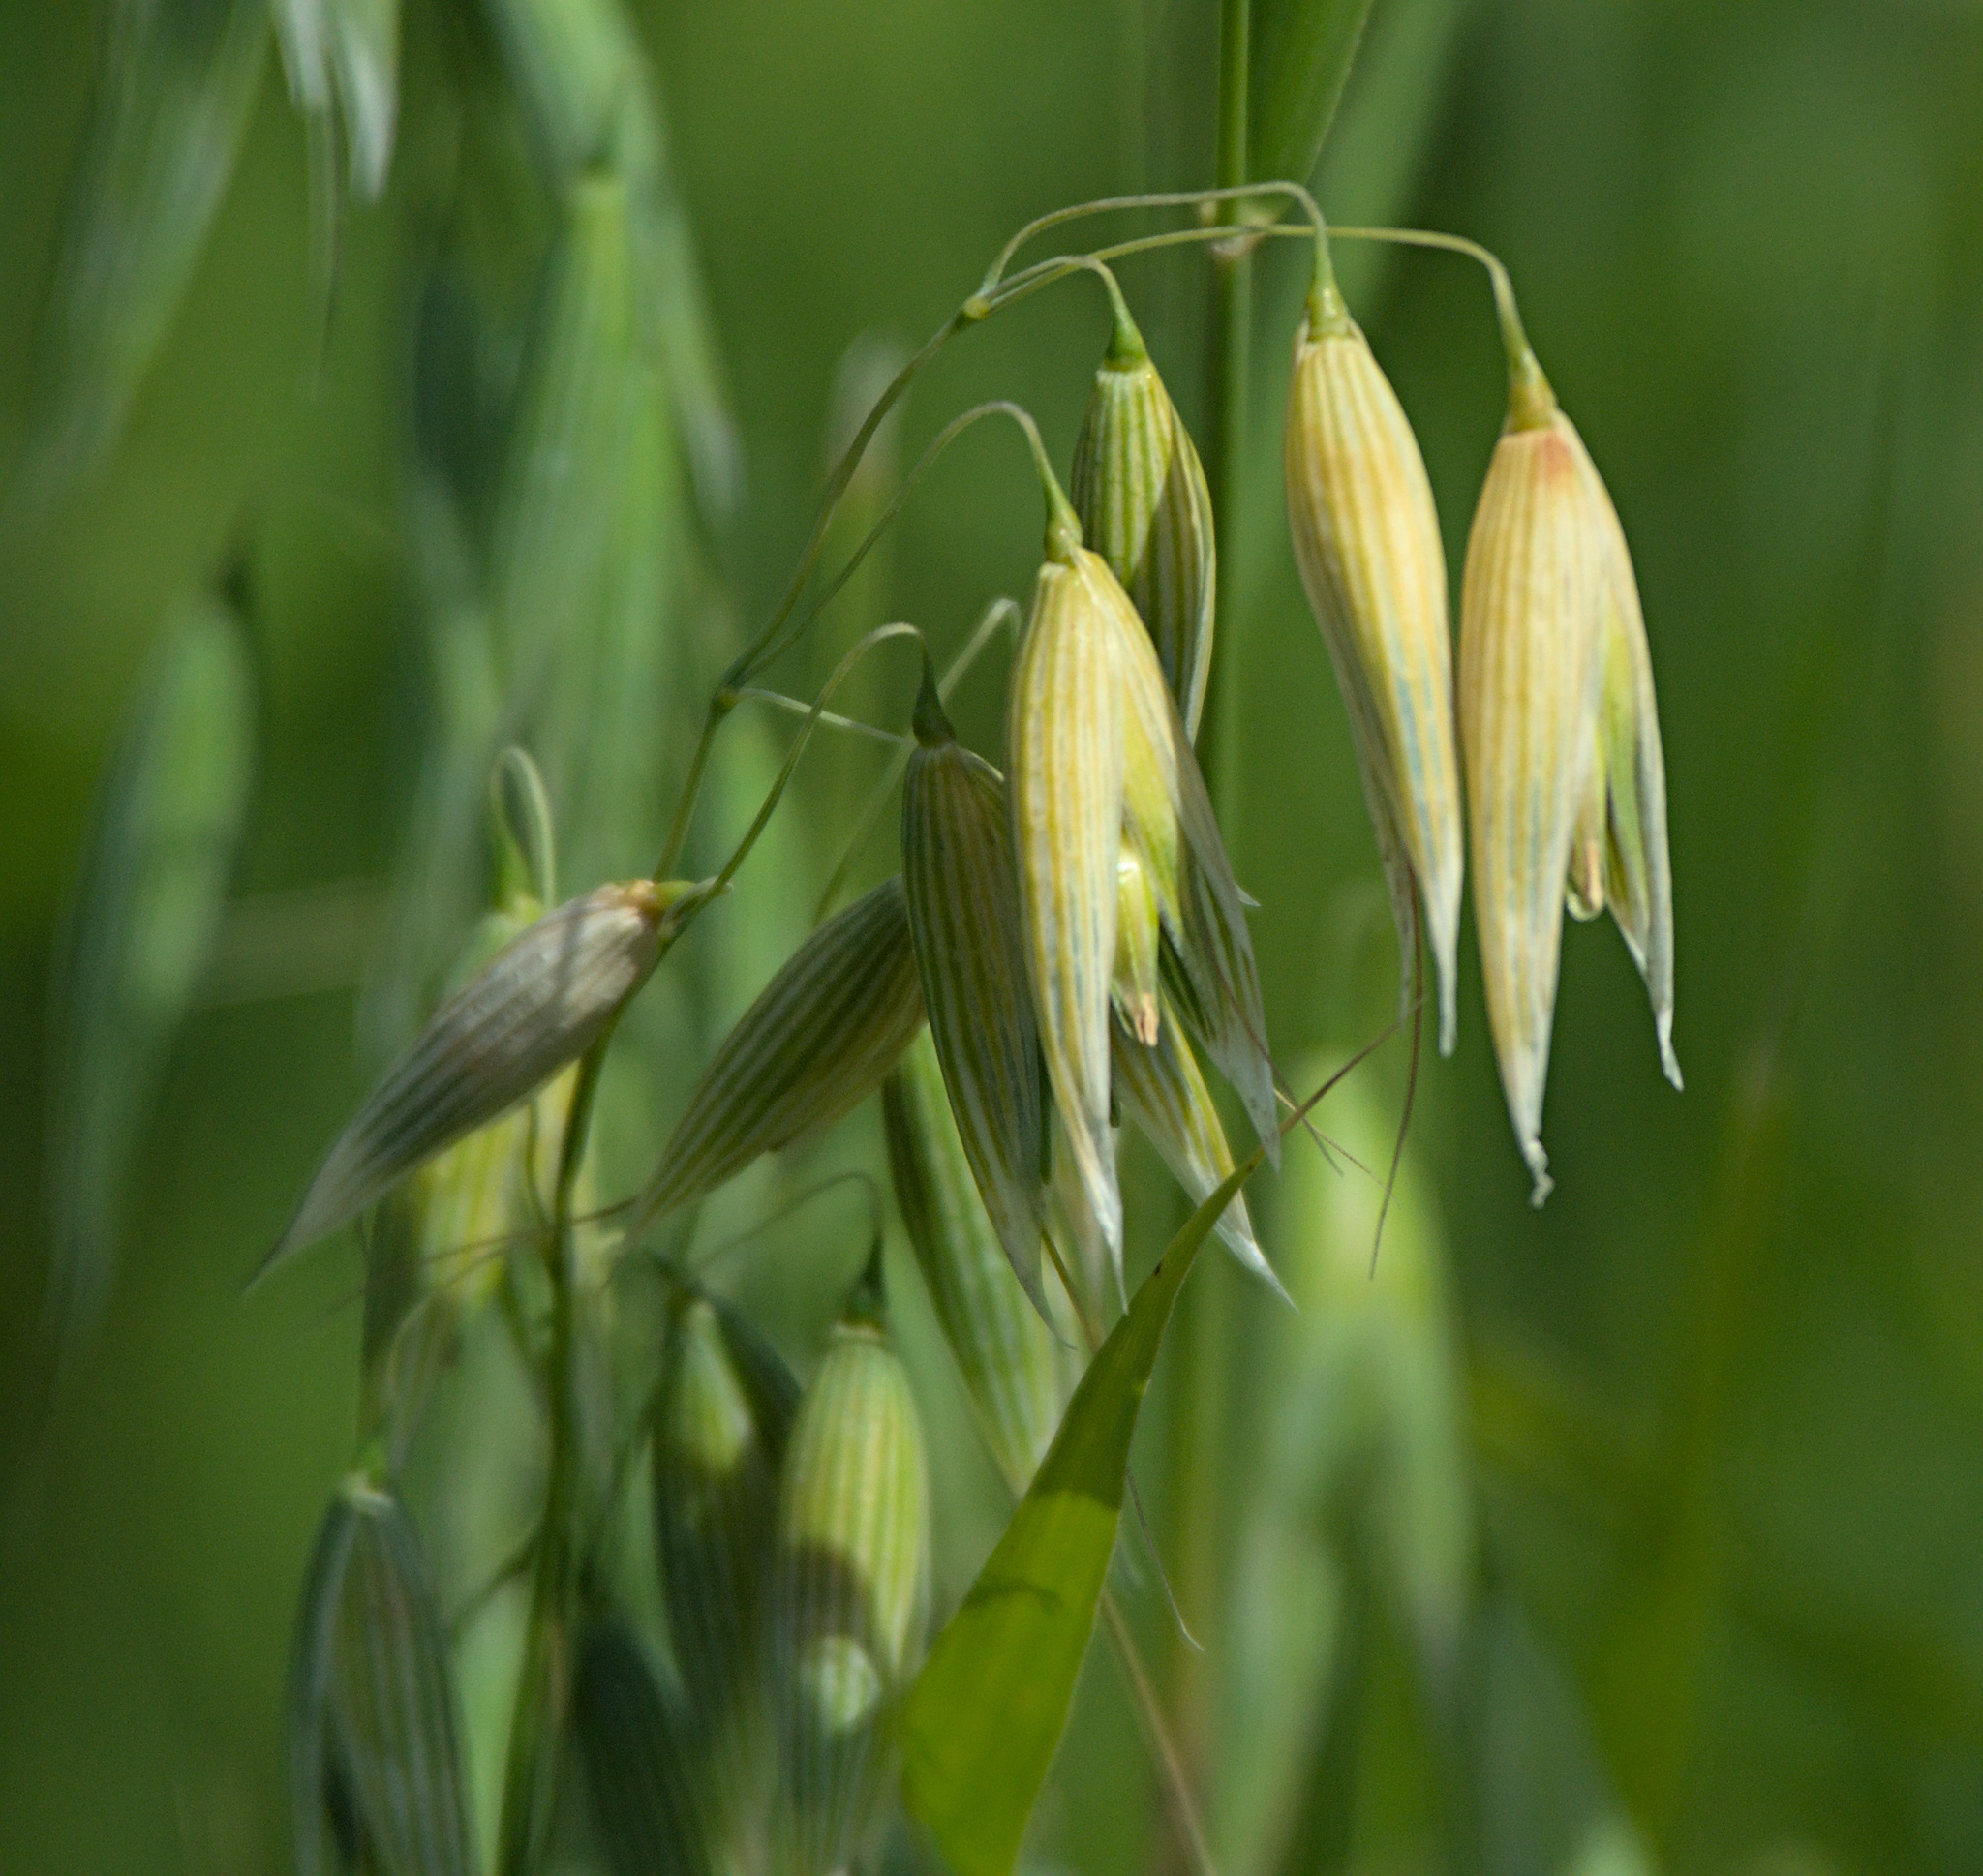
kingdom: Plantae
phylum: Tracheophyta
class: Liliopsida
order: Poales
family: Poaceae
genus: Avena
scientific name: Avena sativa
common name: Oat
